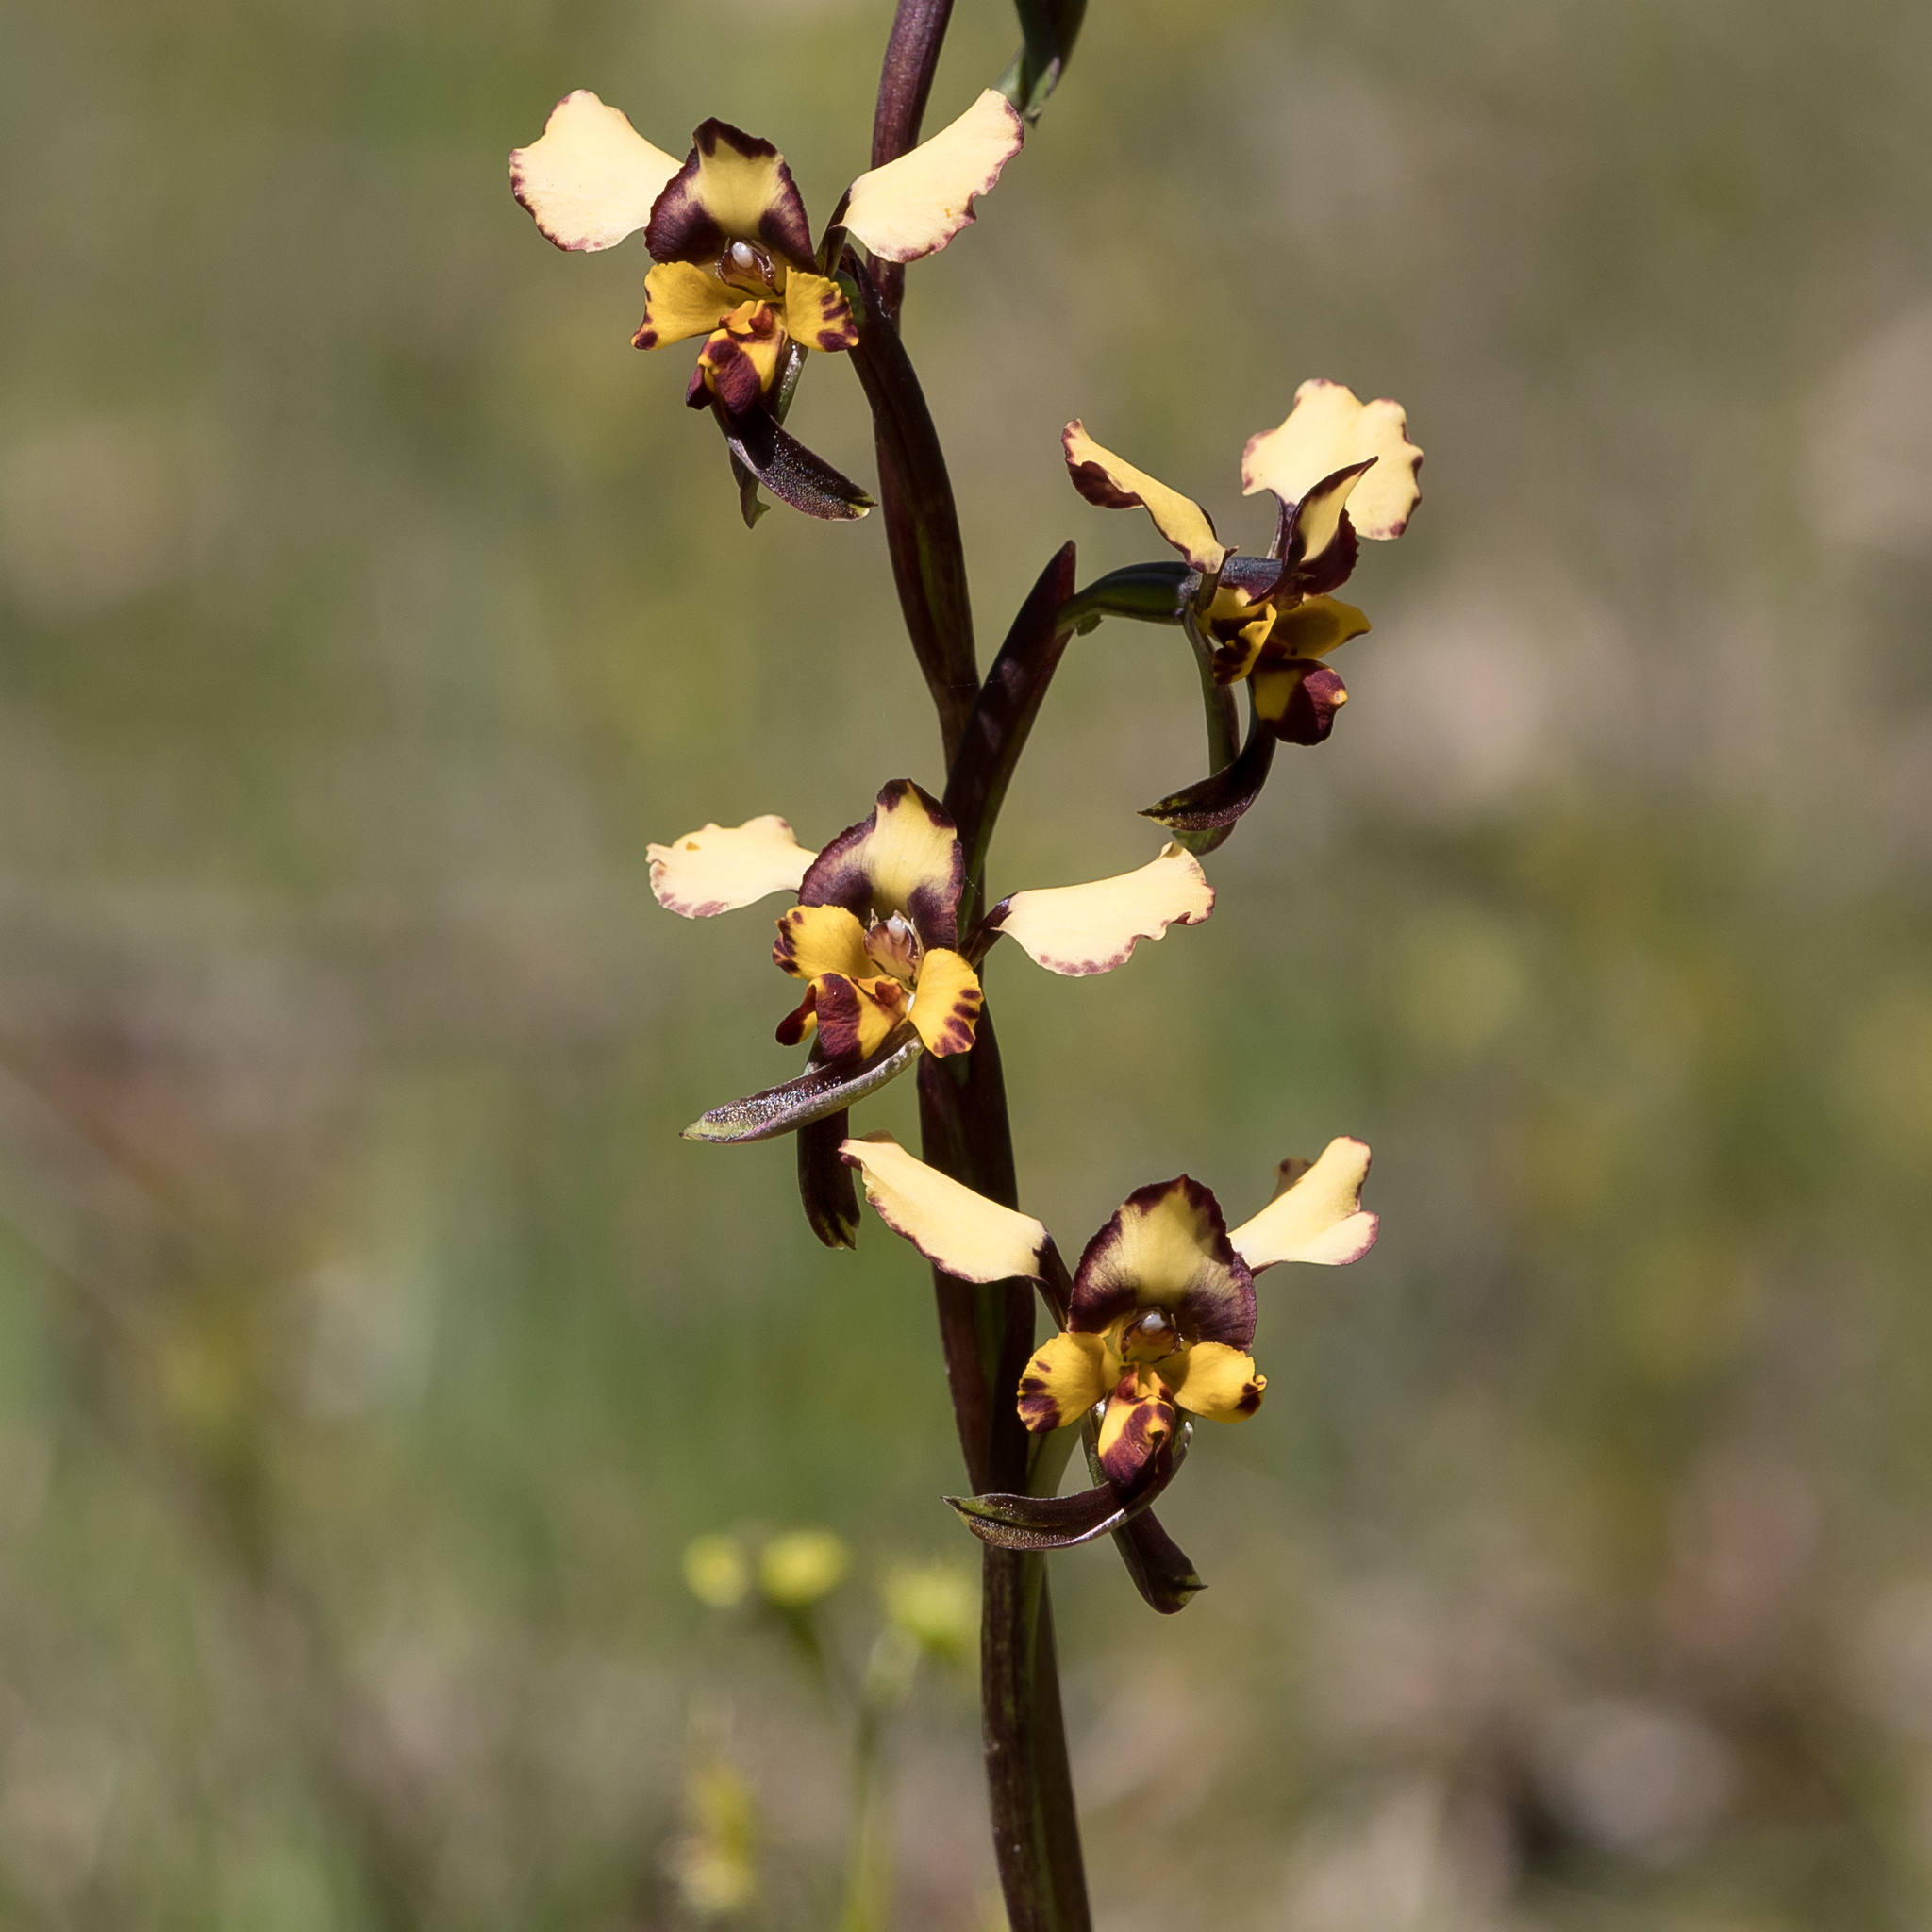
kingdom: Plantae
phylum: Tracheophyta
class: Liliopsida
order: Asparagales
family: Orchidaceae
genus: Diuris
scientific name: Diuris pardina
